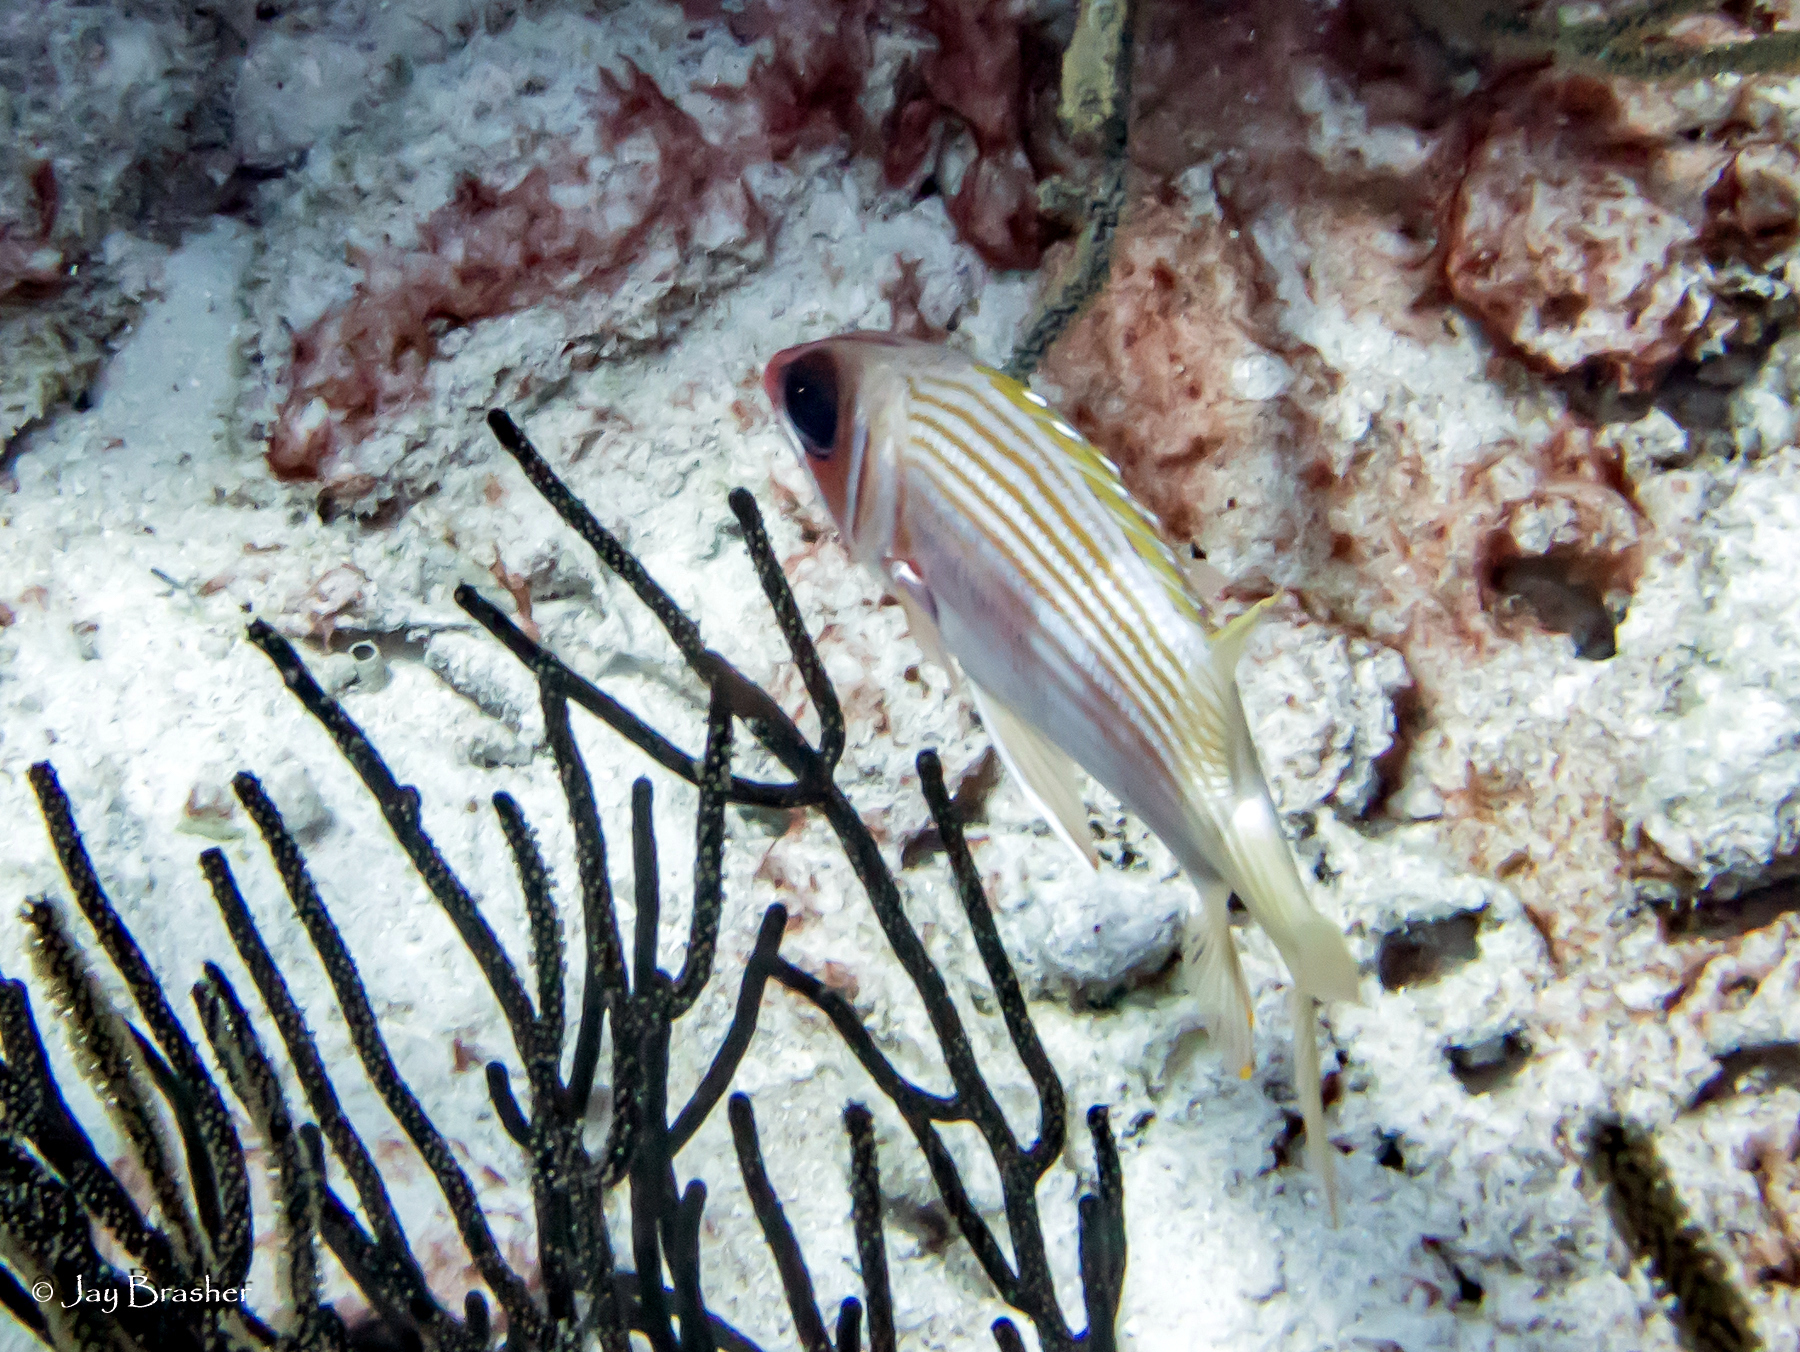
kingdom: Animalia
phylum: Chordata
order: Beryciformes
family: Holocentridae
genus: Holocentrus
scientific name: Holocentrus rufus
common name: Longspine squirrelfish
